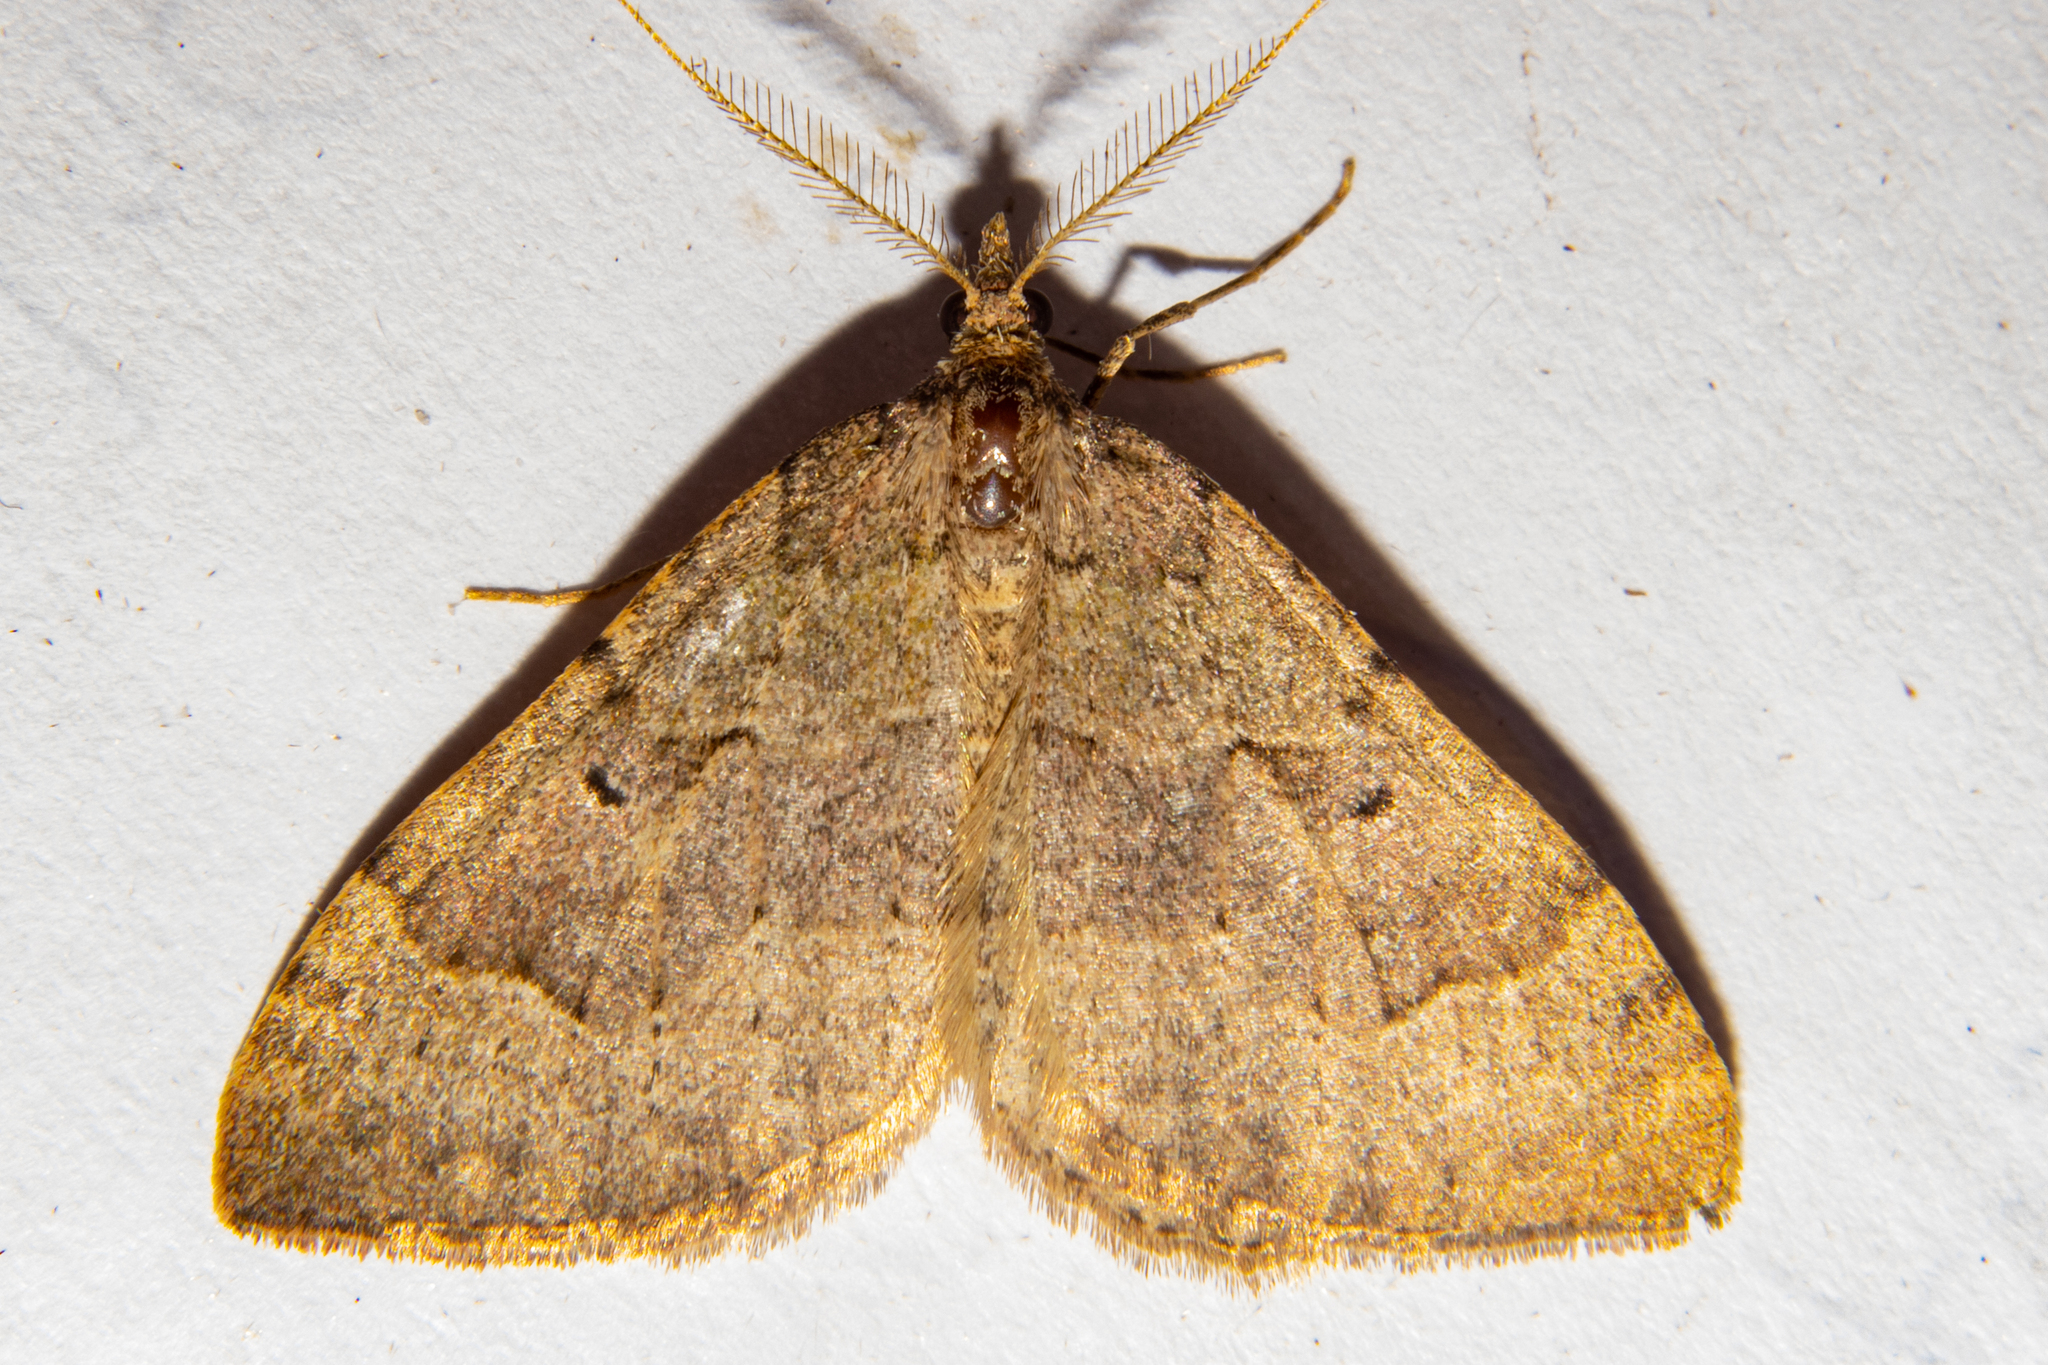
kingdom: Animalia
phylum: Arthropoda
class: Insecta
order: Lepidoptera
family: Geometridae
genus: Epyaxa
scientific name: Epyaxa rosearia
